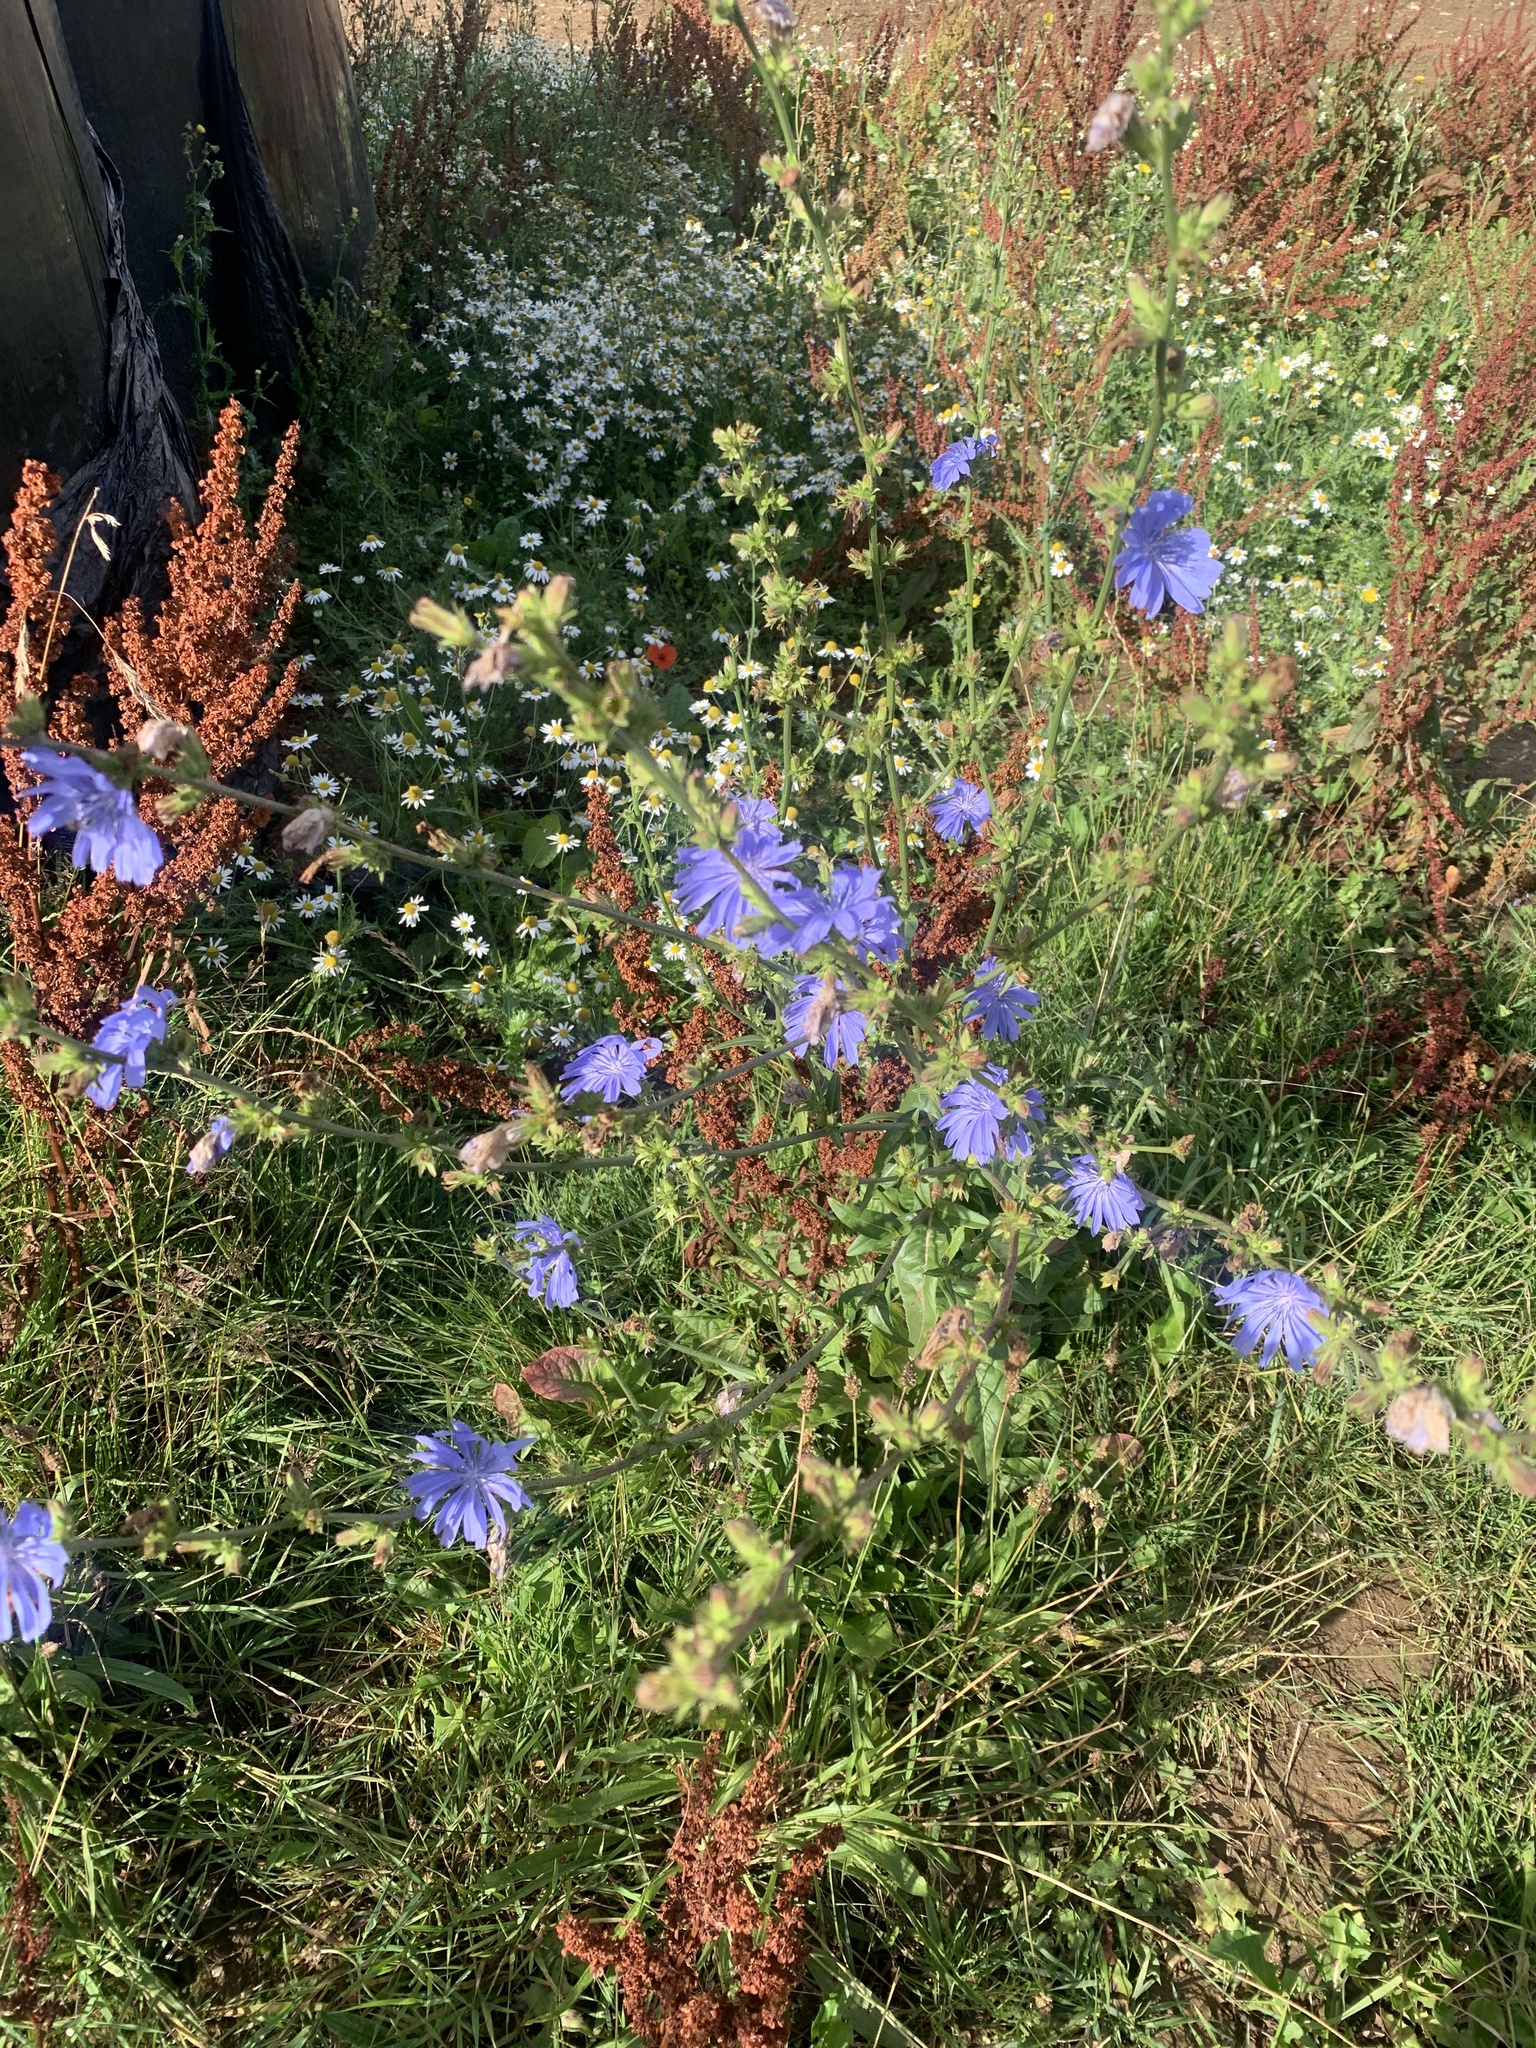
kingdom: Plantae
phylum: Tracheophyta
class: Magnoliopsida
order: Asterales
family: Asteraceae
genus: Cichorium
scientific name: Cichorium intybus
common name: Chicory
